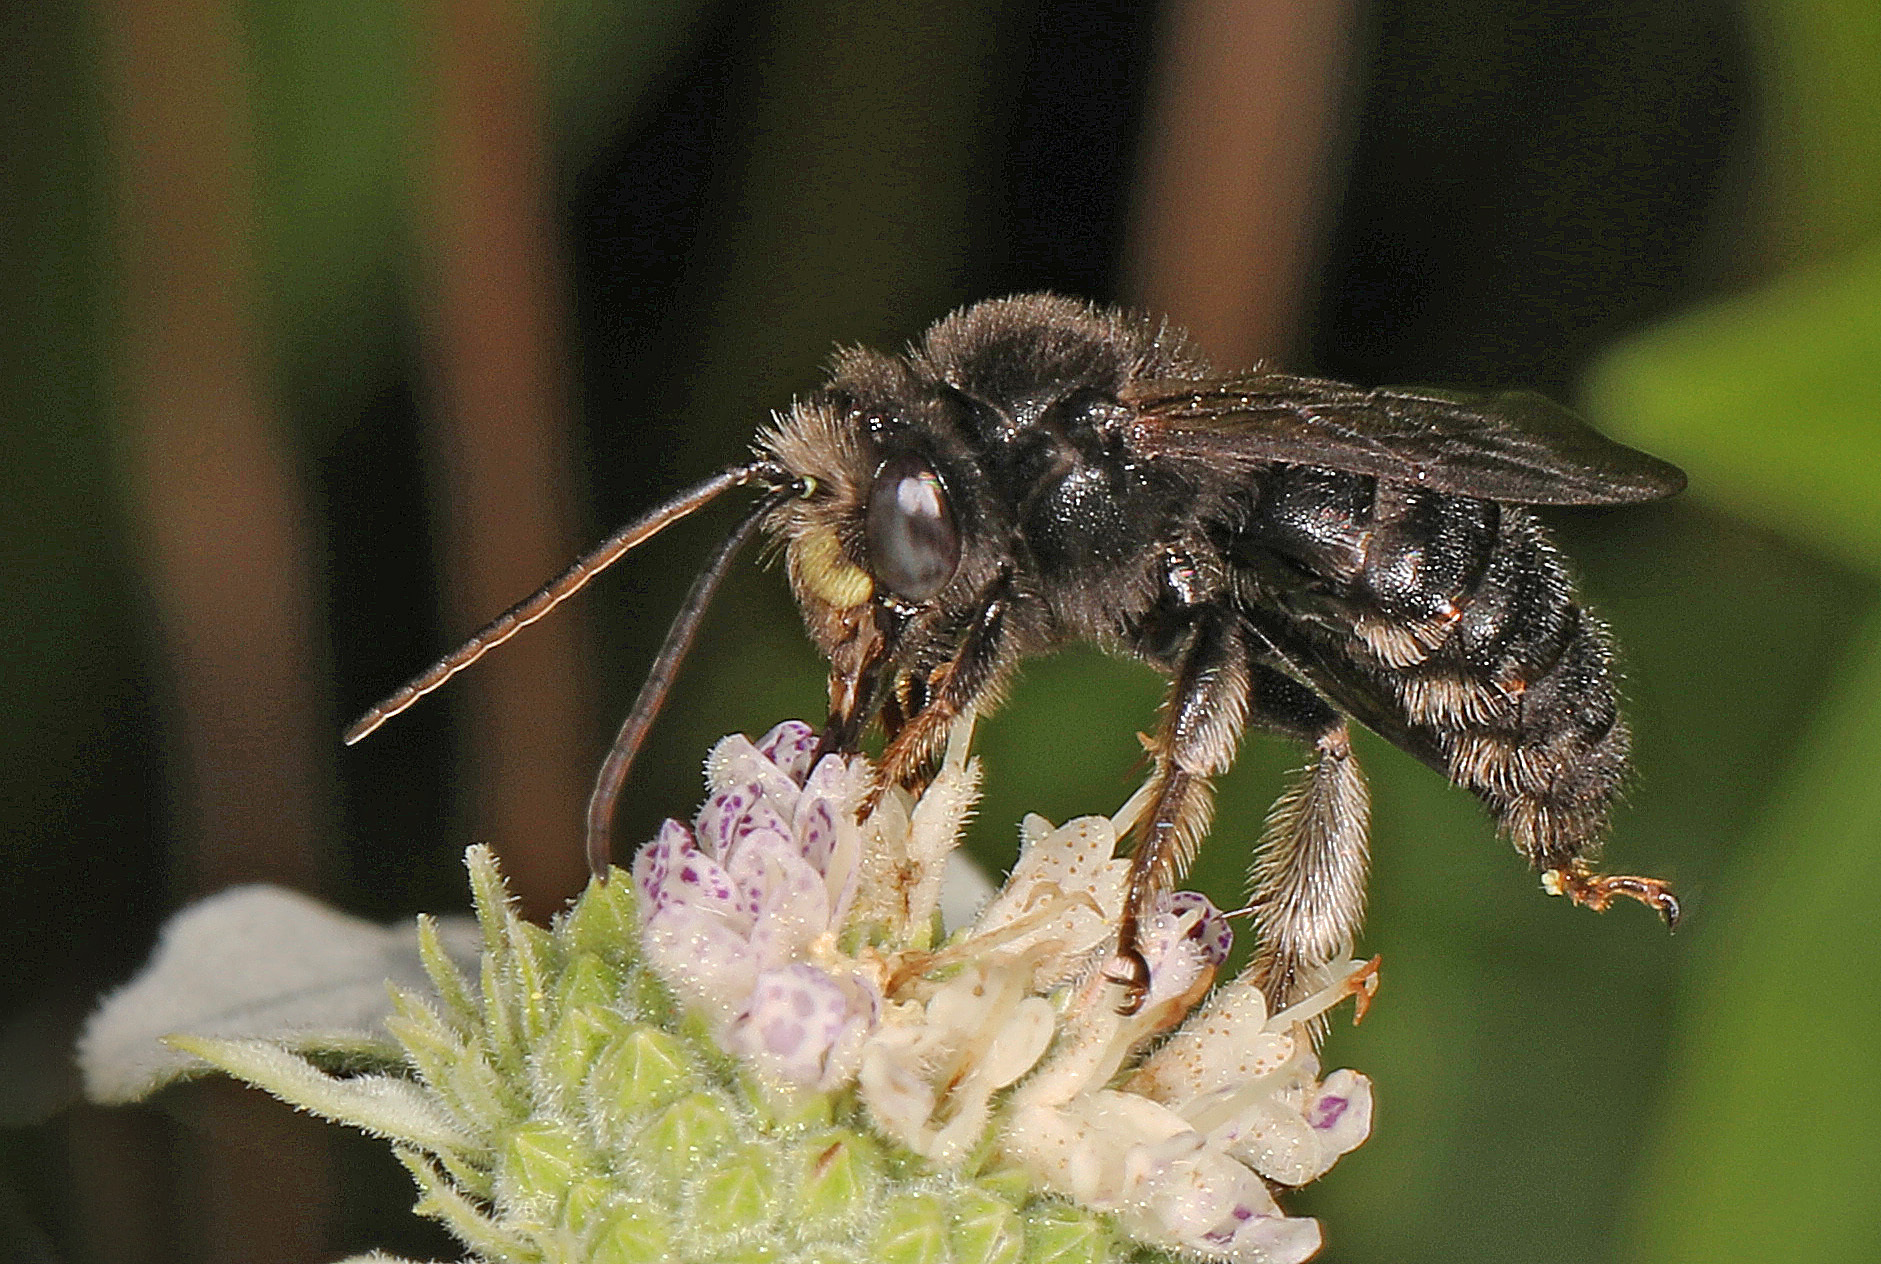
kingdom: Animalia
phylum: Arthropoda
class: Insecta
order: Hymenoptera
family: Apidae
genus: Melissodes
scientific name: Melissodes bimaculatus
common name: Two-spotted long-horned bee
